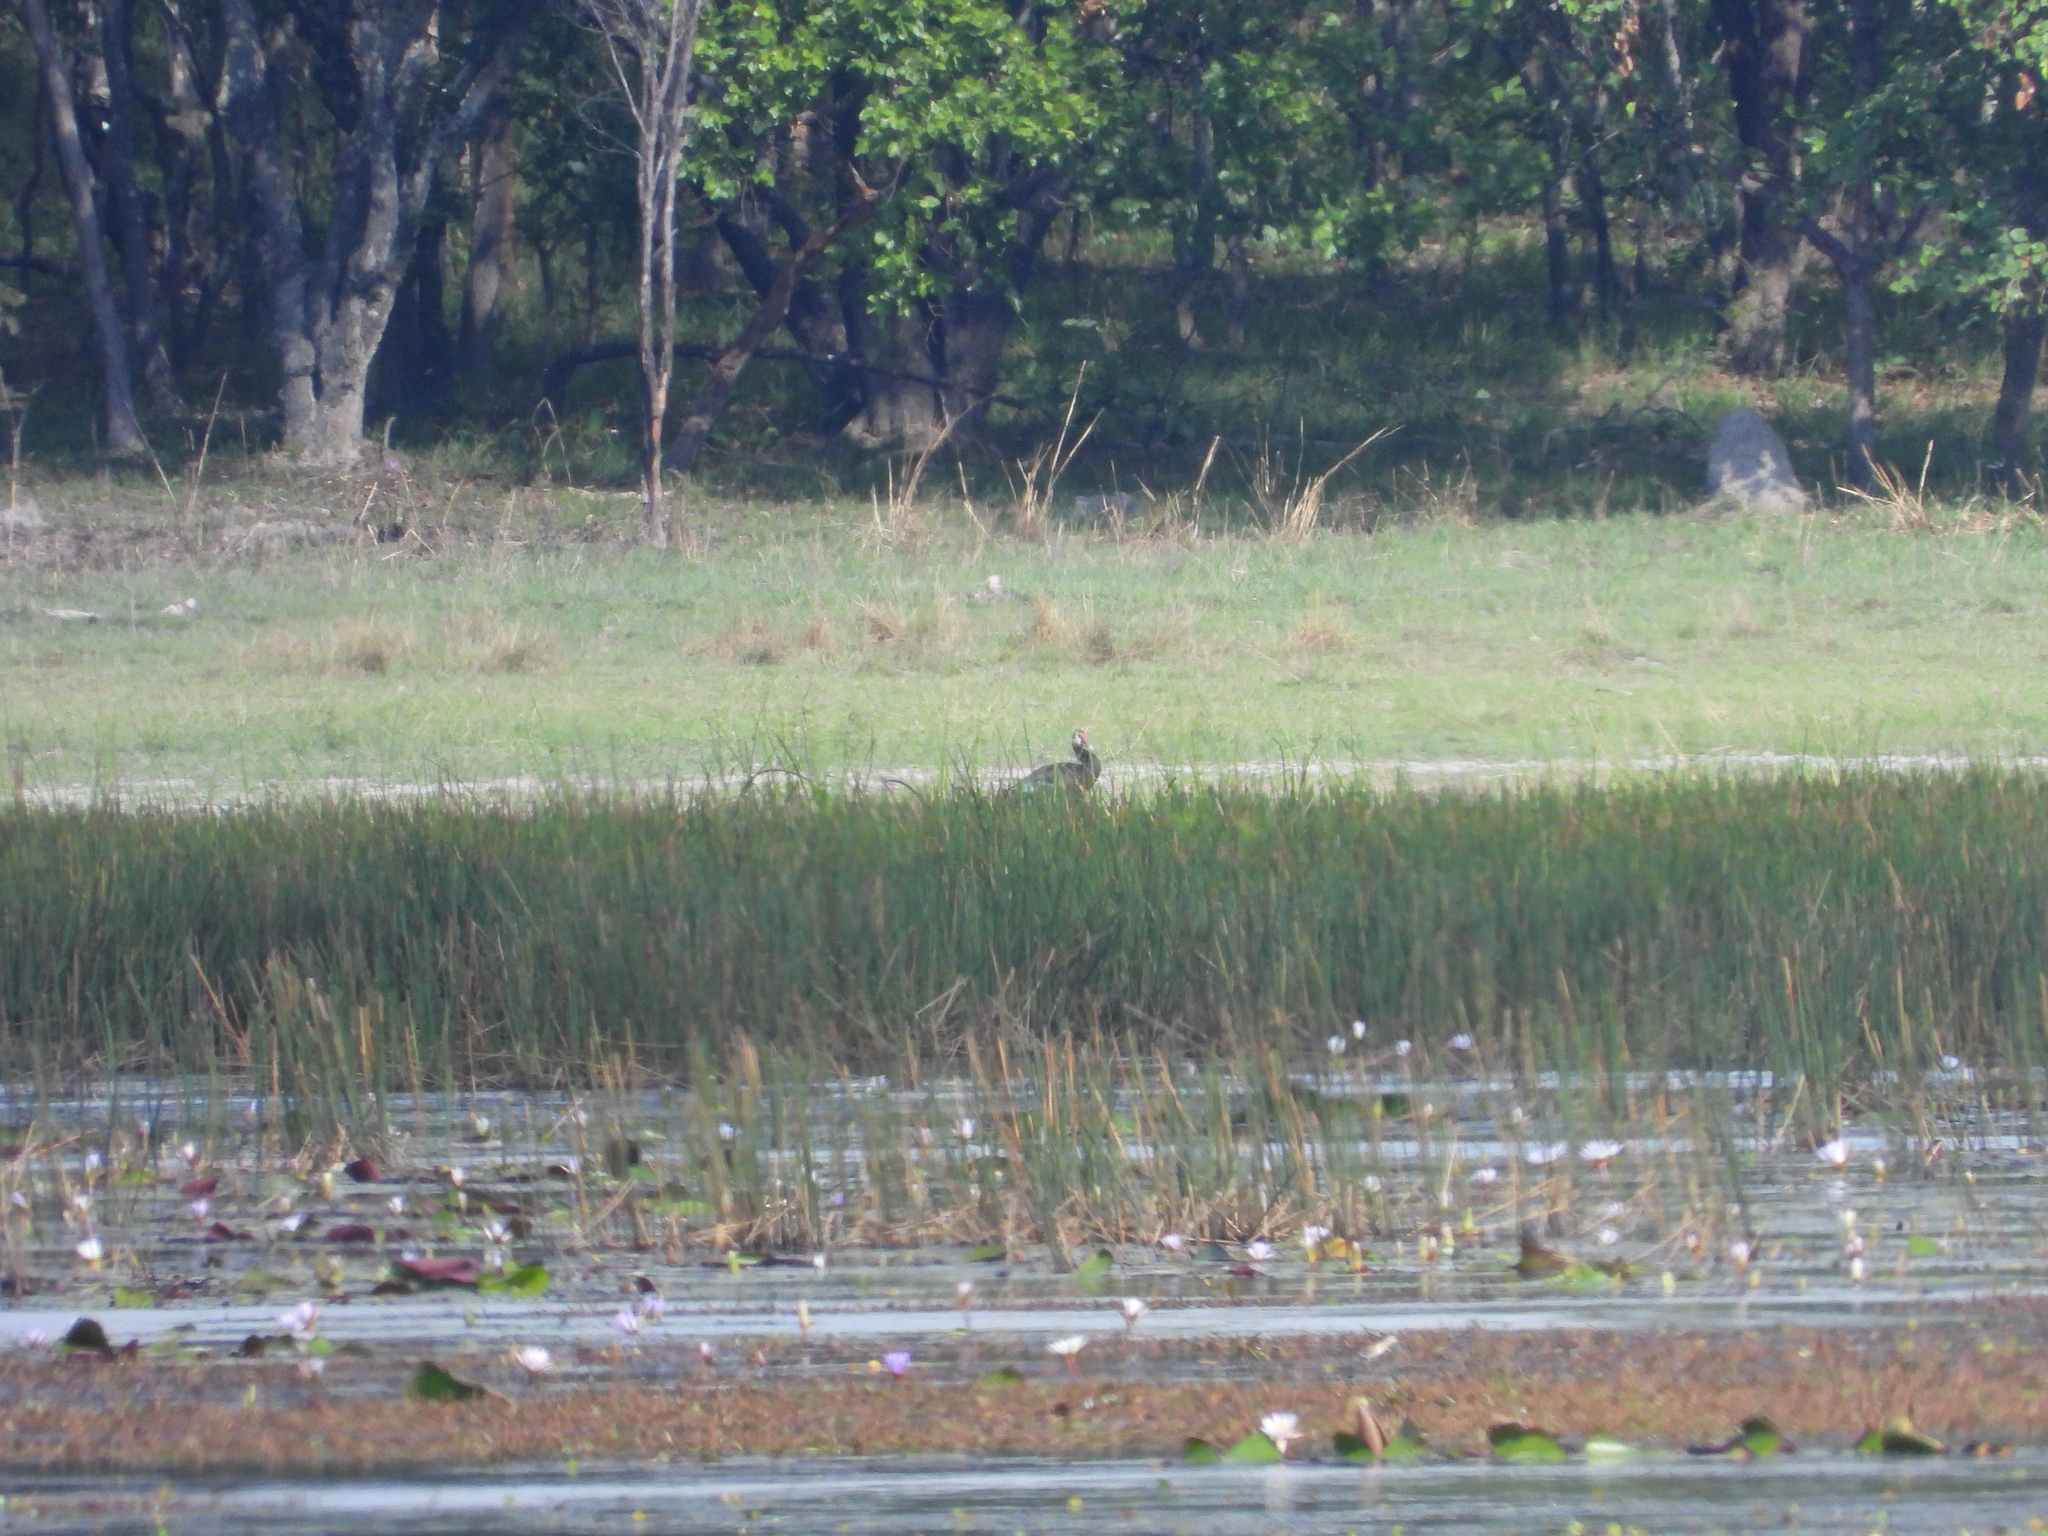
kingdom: Animalia
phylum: Chordata
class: Aves
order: Anseriformes
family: Anatidae
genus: Plectropterus
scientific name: Plectropterus gambensis
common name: Spur-winged goose
